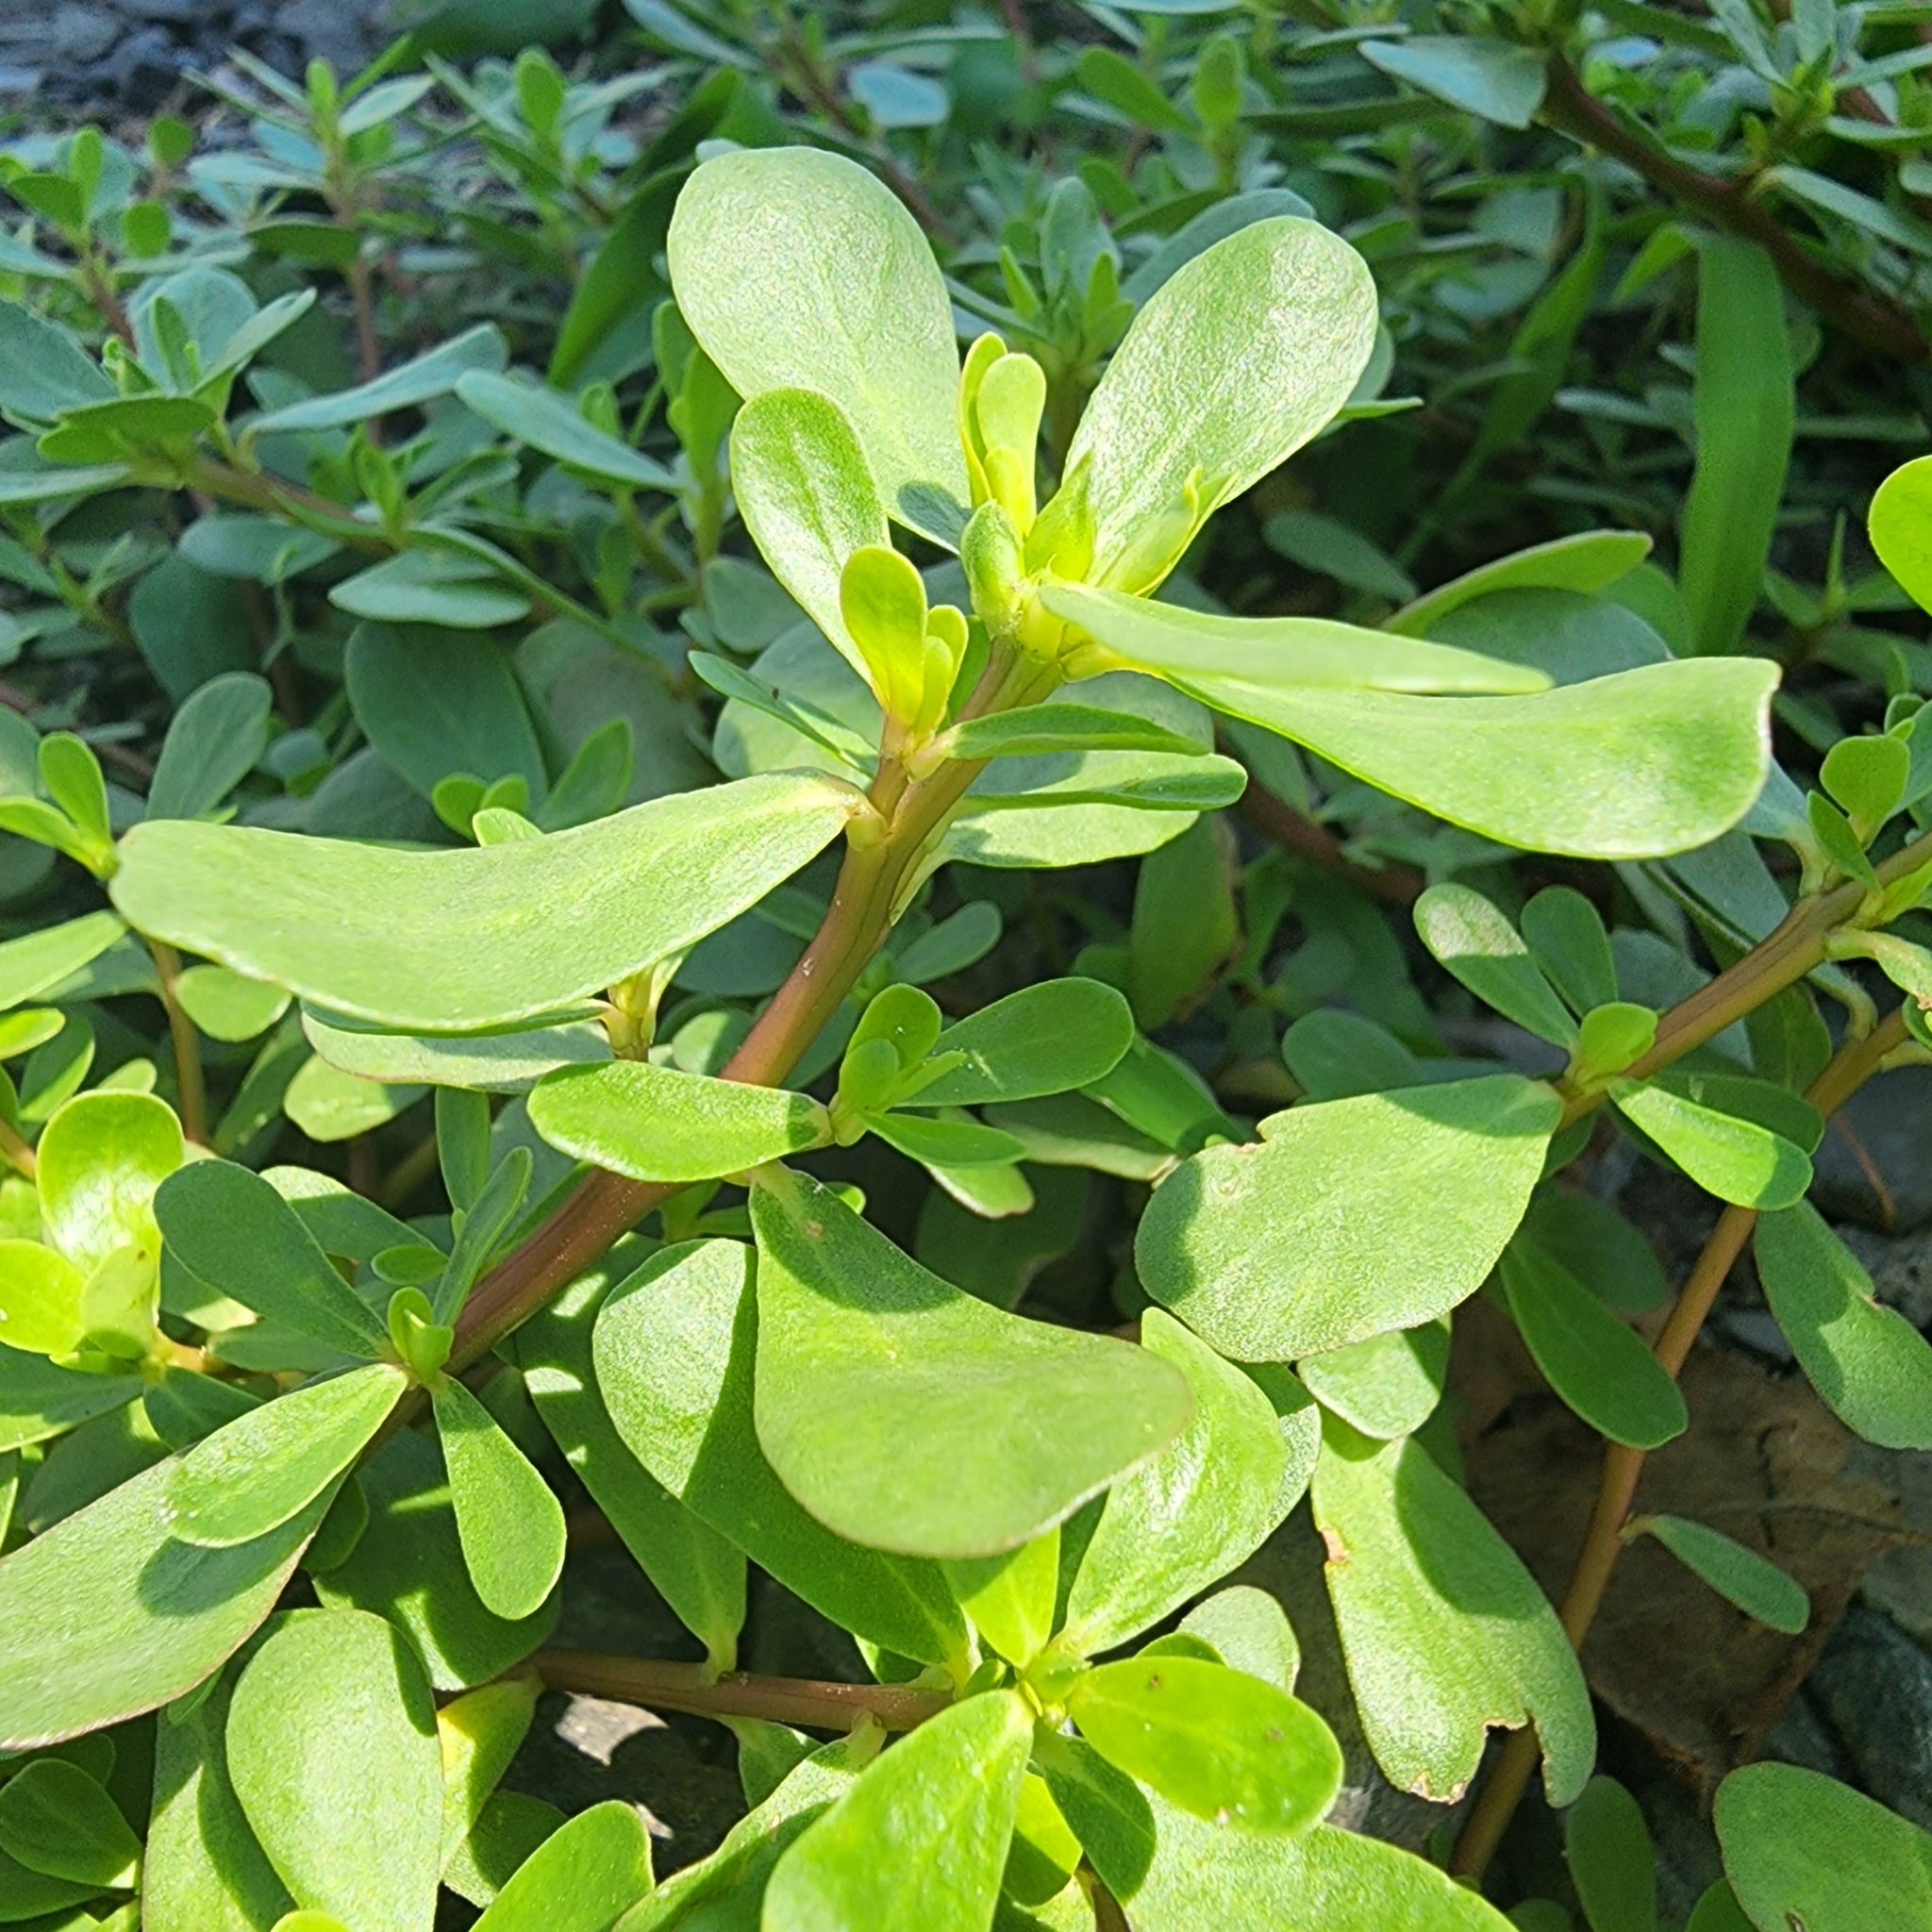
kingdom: Plantae
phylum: Tracheophyta
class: Magnoliopsida
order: Caryophyllales
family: Portulacaceae
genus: Portulaca
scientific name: Portulaca oleracea
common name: Common purslane
